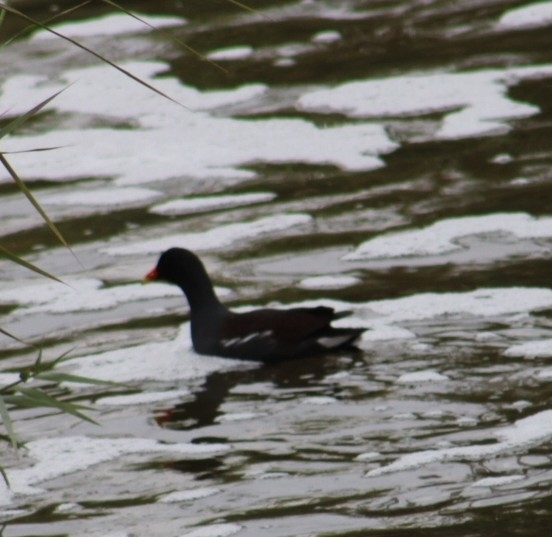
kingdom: Animalia
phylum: Chordata
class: Aves
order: Gruiformes
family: Rallidae
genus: Gallinula
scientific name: Gallinula chloropus
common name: Common moorhen
